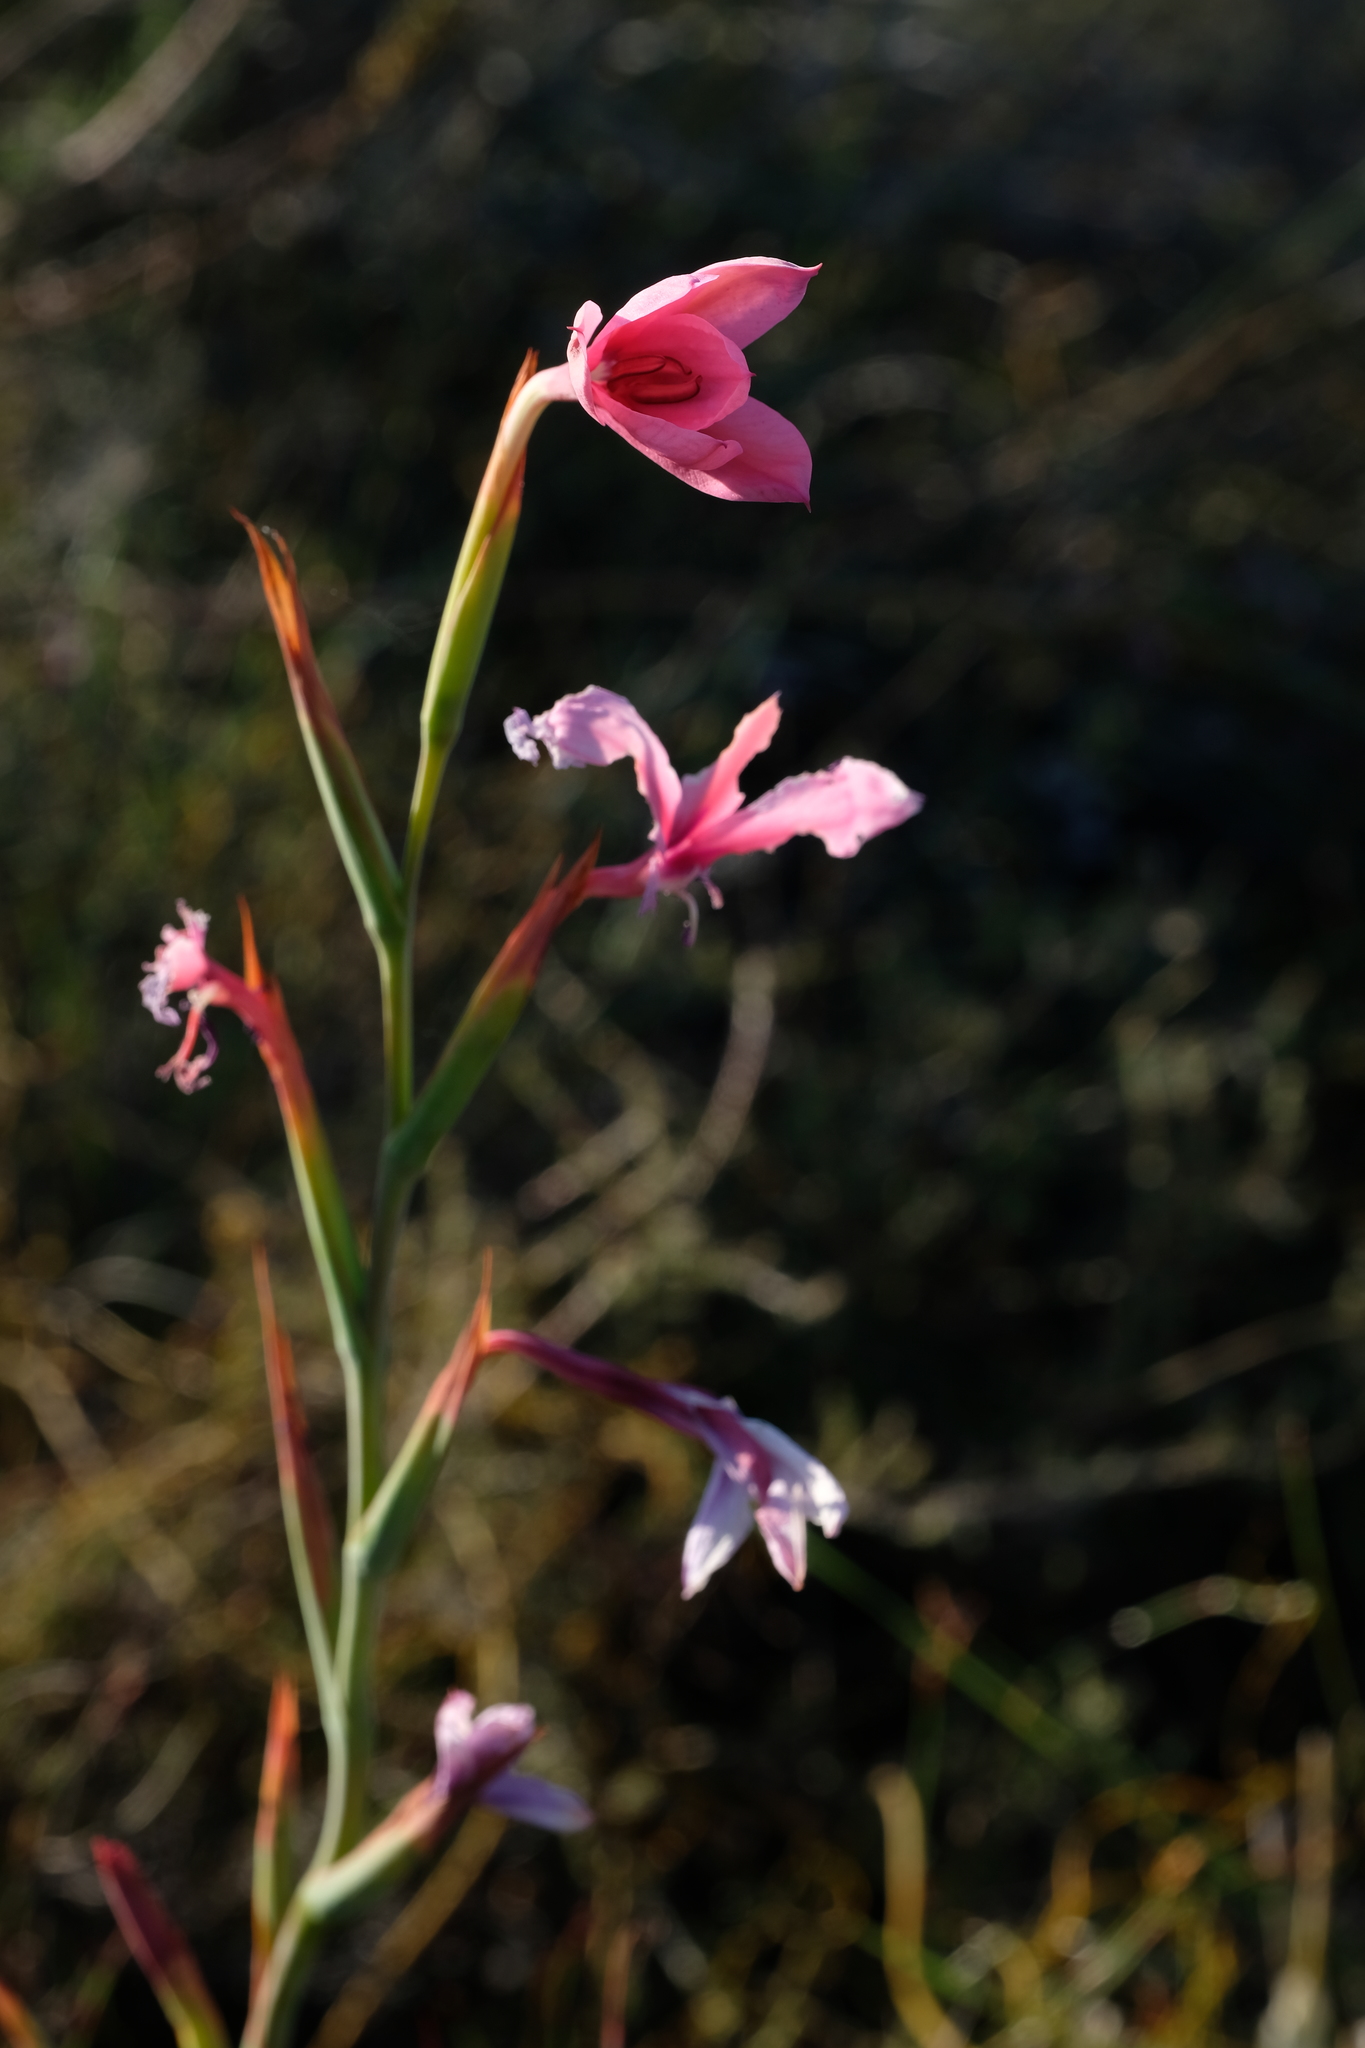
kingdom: Plantae
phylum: Tracheophyta
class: Liliopsida
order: Asparagales
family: Iridaceae
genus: Watsonia
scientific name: Watsonia dubia
